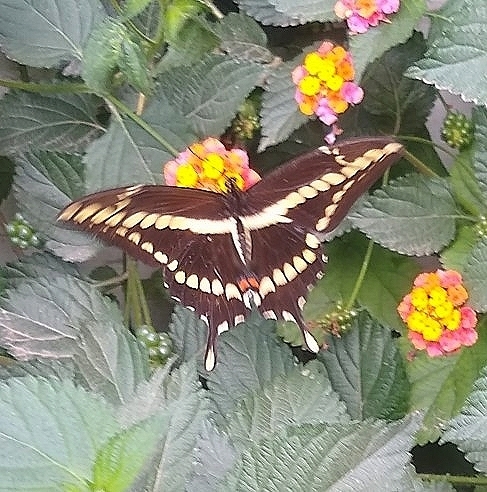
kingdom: Animalia
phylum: Arthropoda
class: Insecta
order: Lepidoptera
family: Papilionidae
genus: Papilio
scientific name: Papilio thoas
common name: King swallowtail
